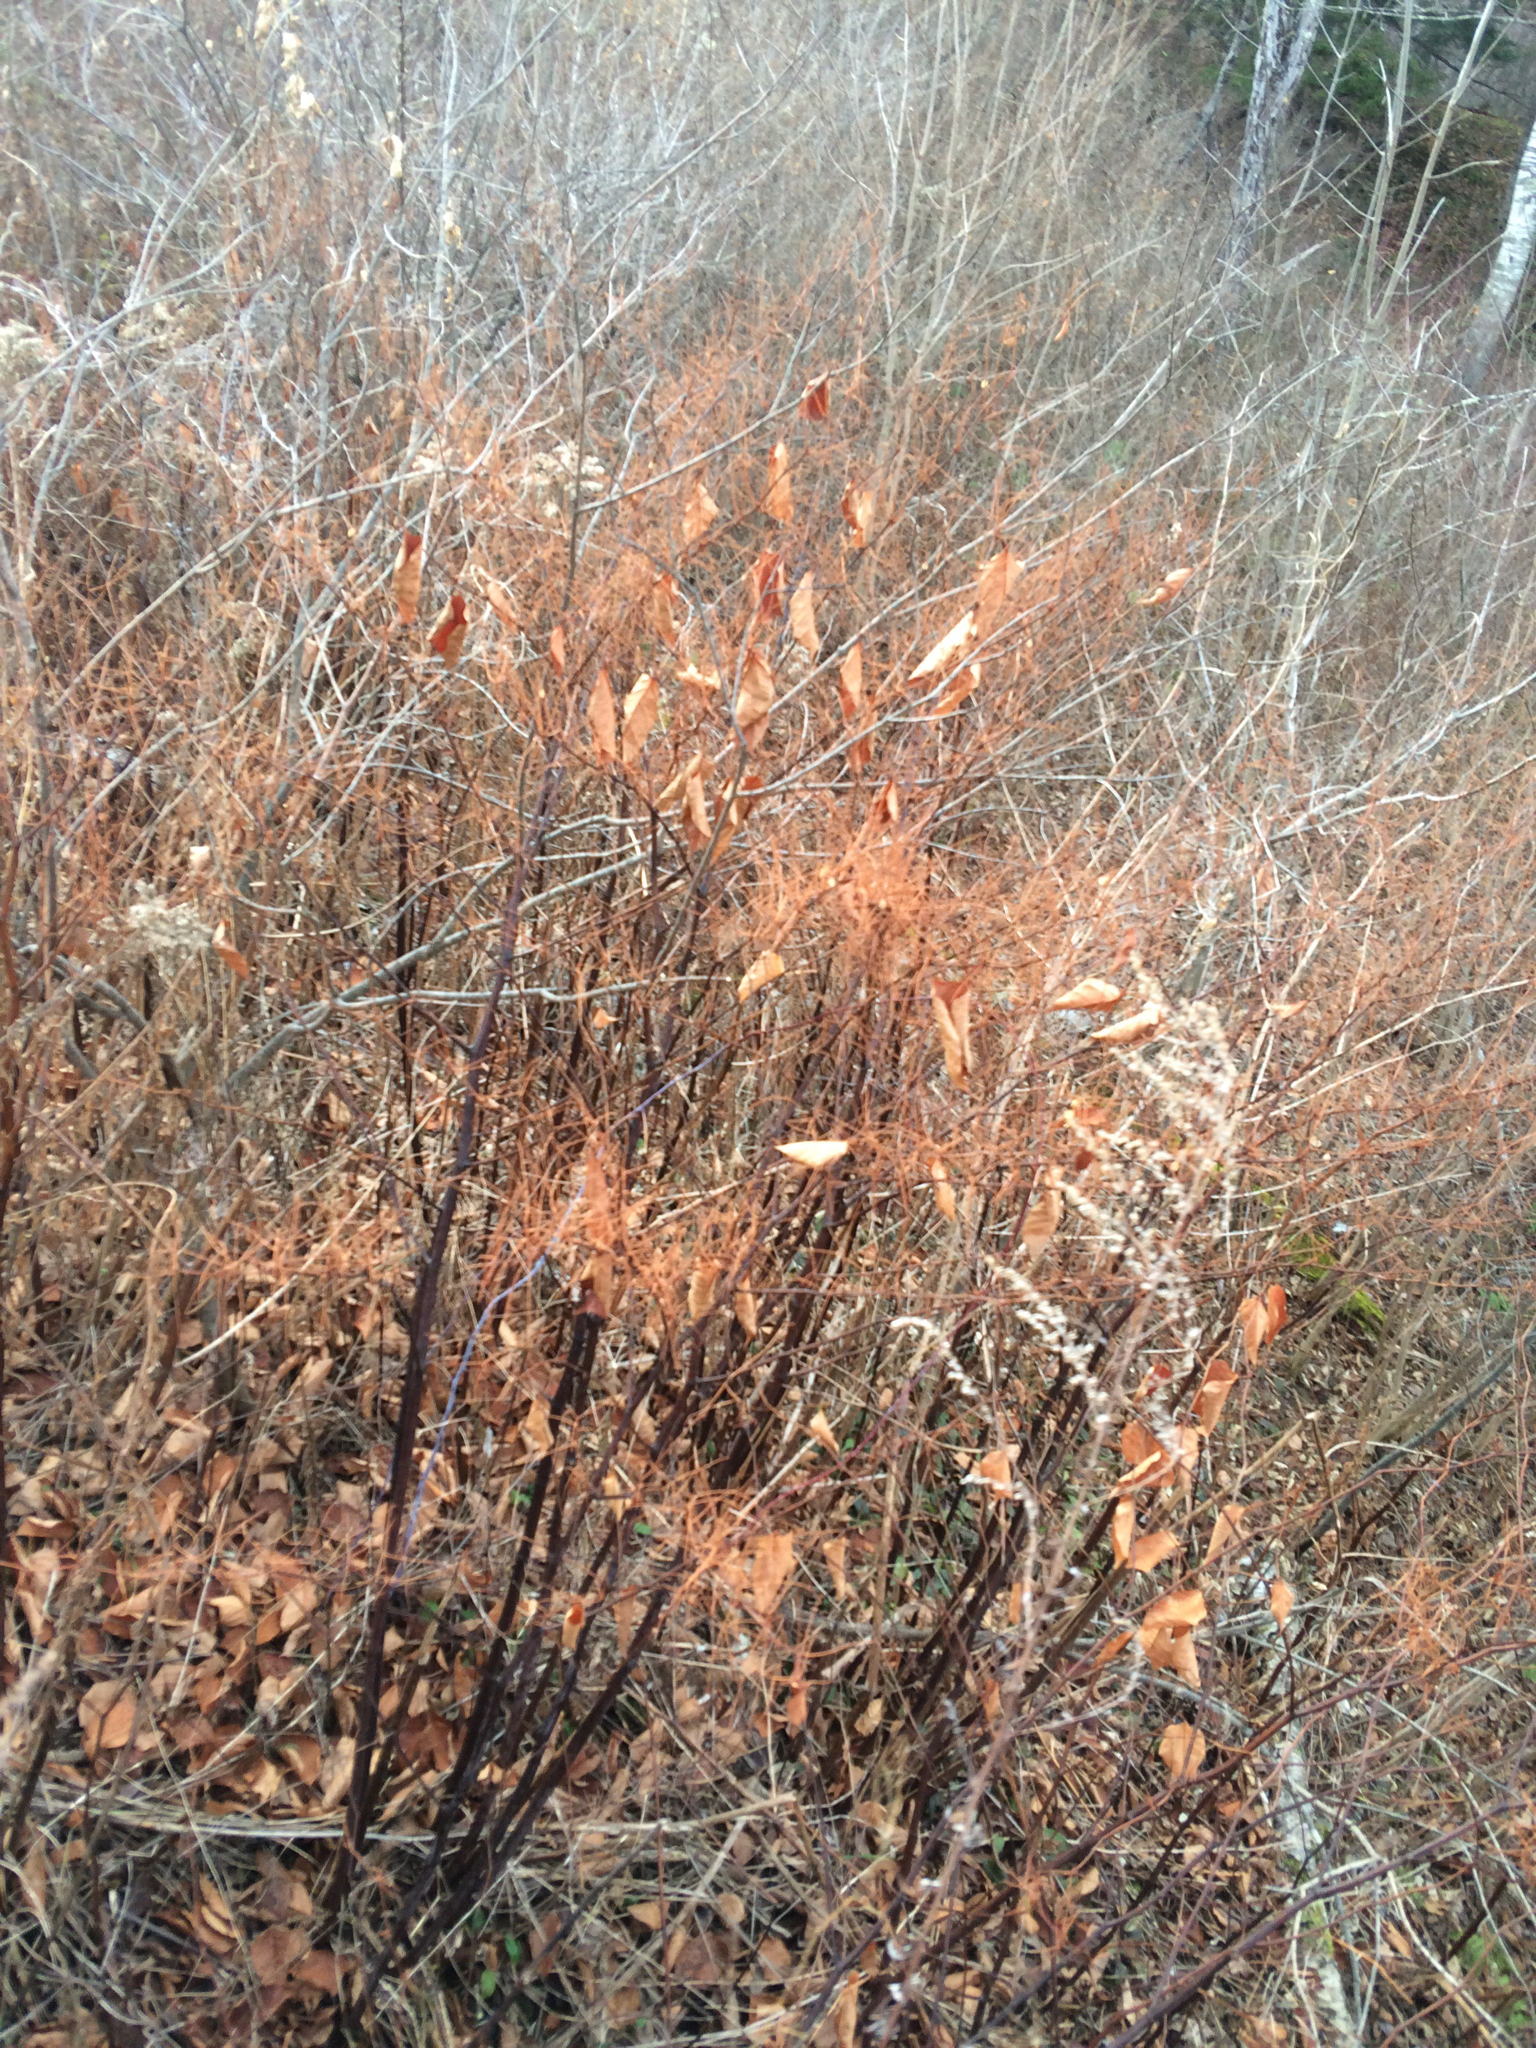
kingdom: Plantae
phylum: Tracheophyta
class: Magnoliopsida
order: Caryophyllales
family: Polygonaceae
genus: Reynoutria
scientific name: Reynoutria japonica
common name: Japanese knotweed
